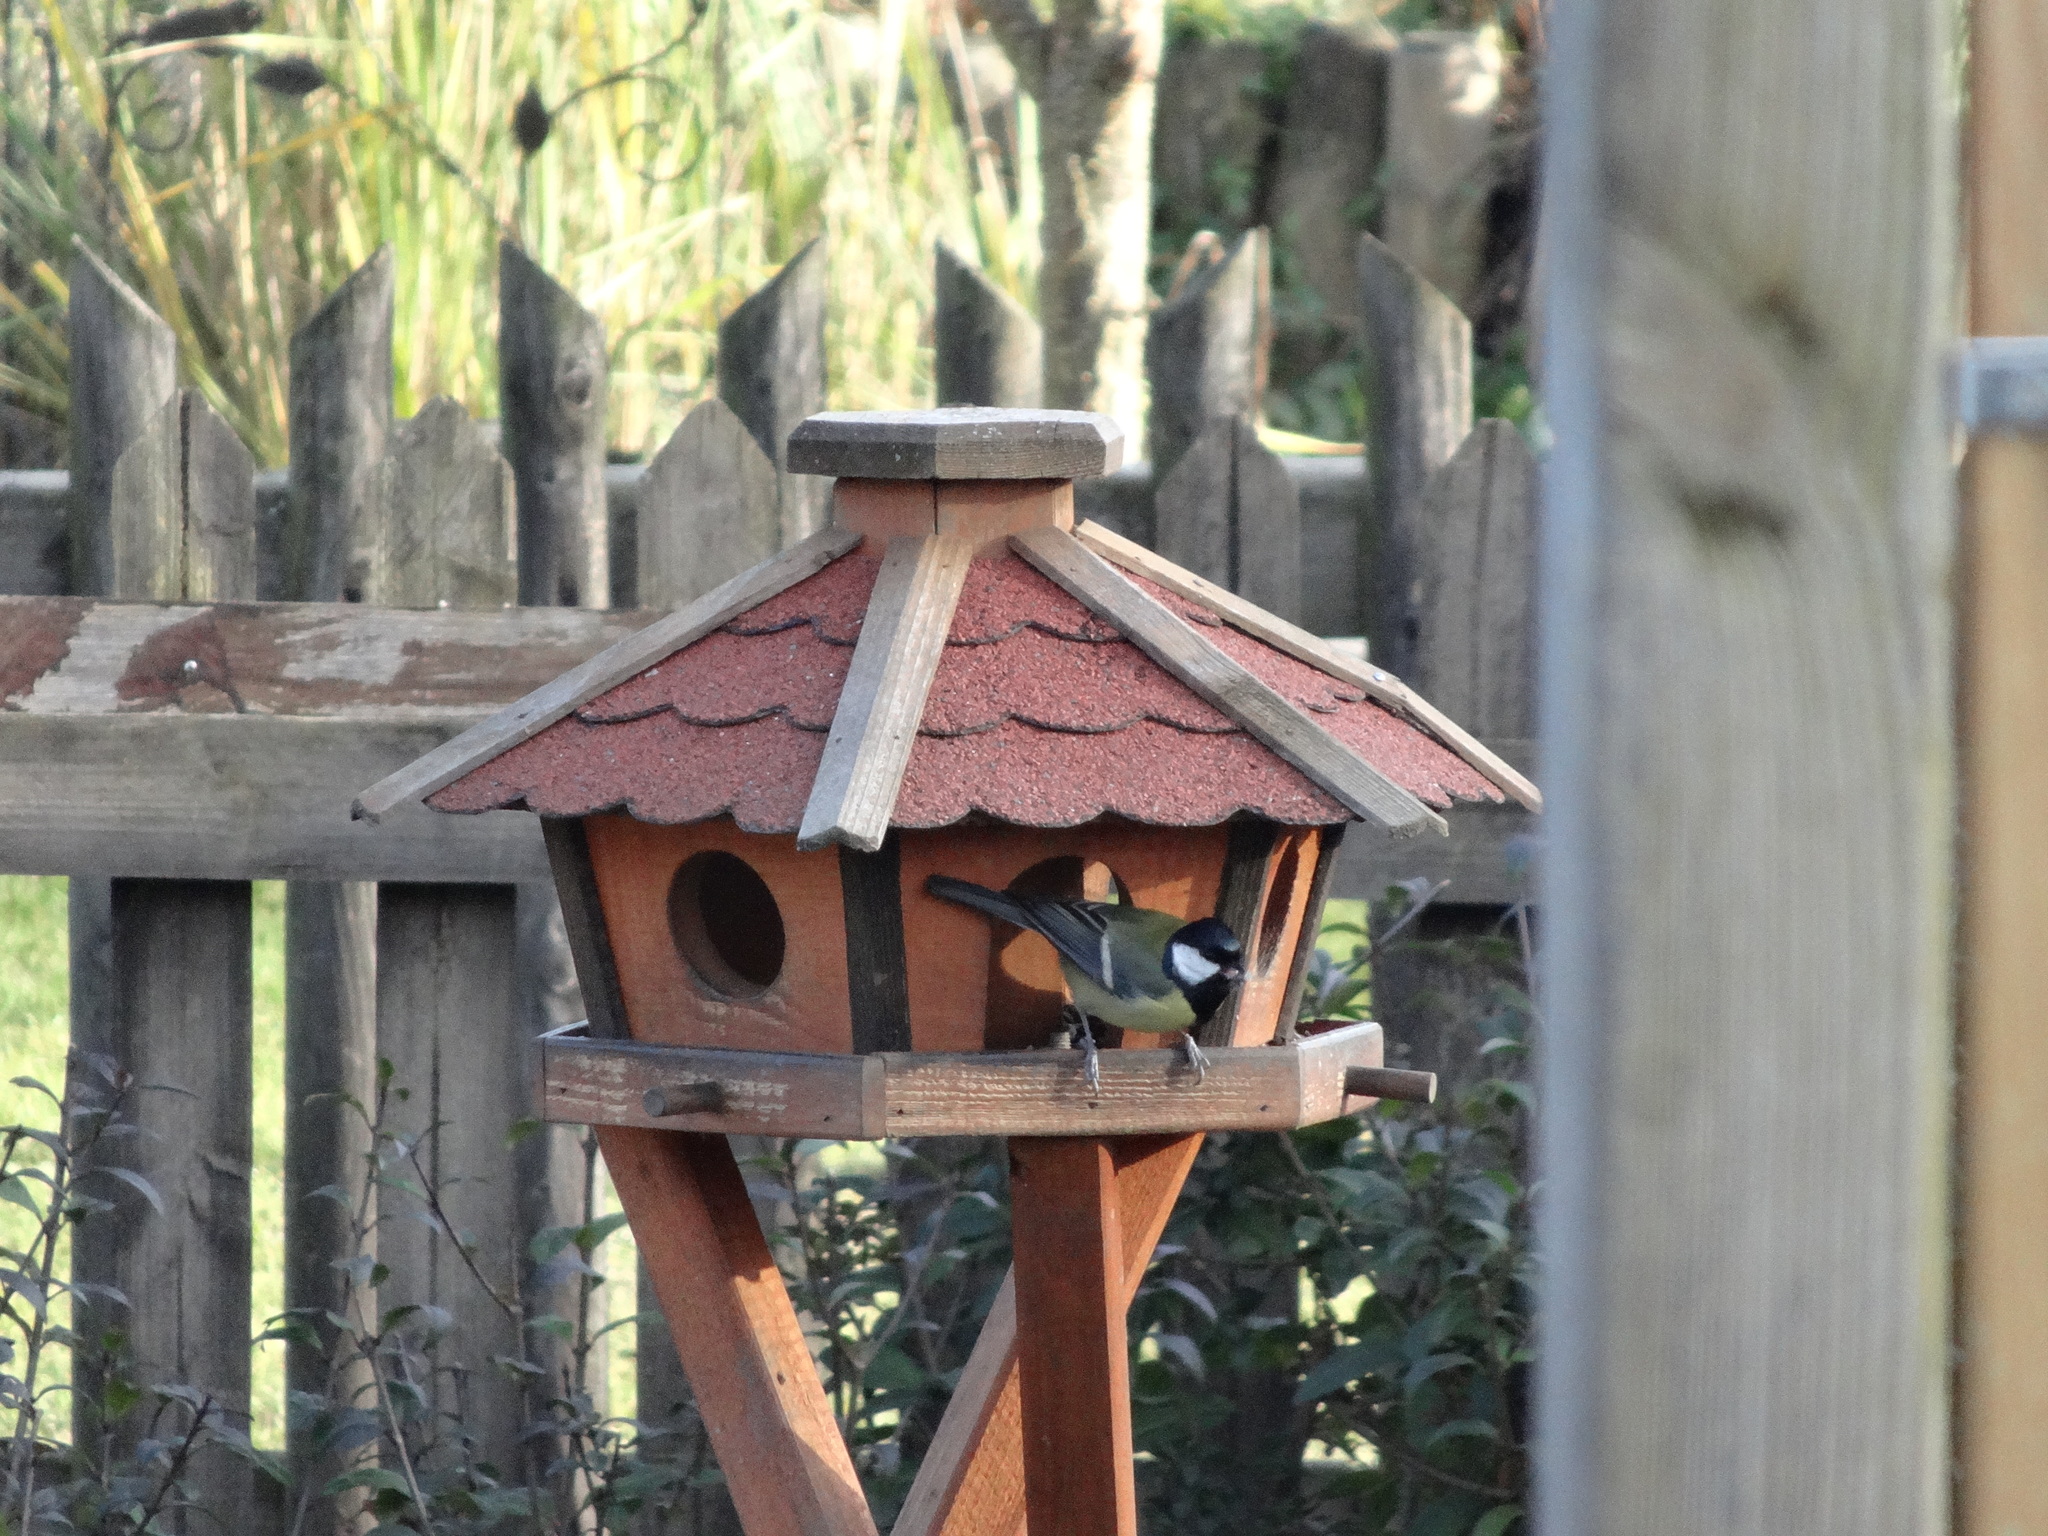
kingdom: Animalia
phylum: Chordata
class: Aves
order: Passeriformes
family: Paridae
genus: Parus
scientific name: Parus major
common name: Great tit
